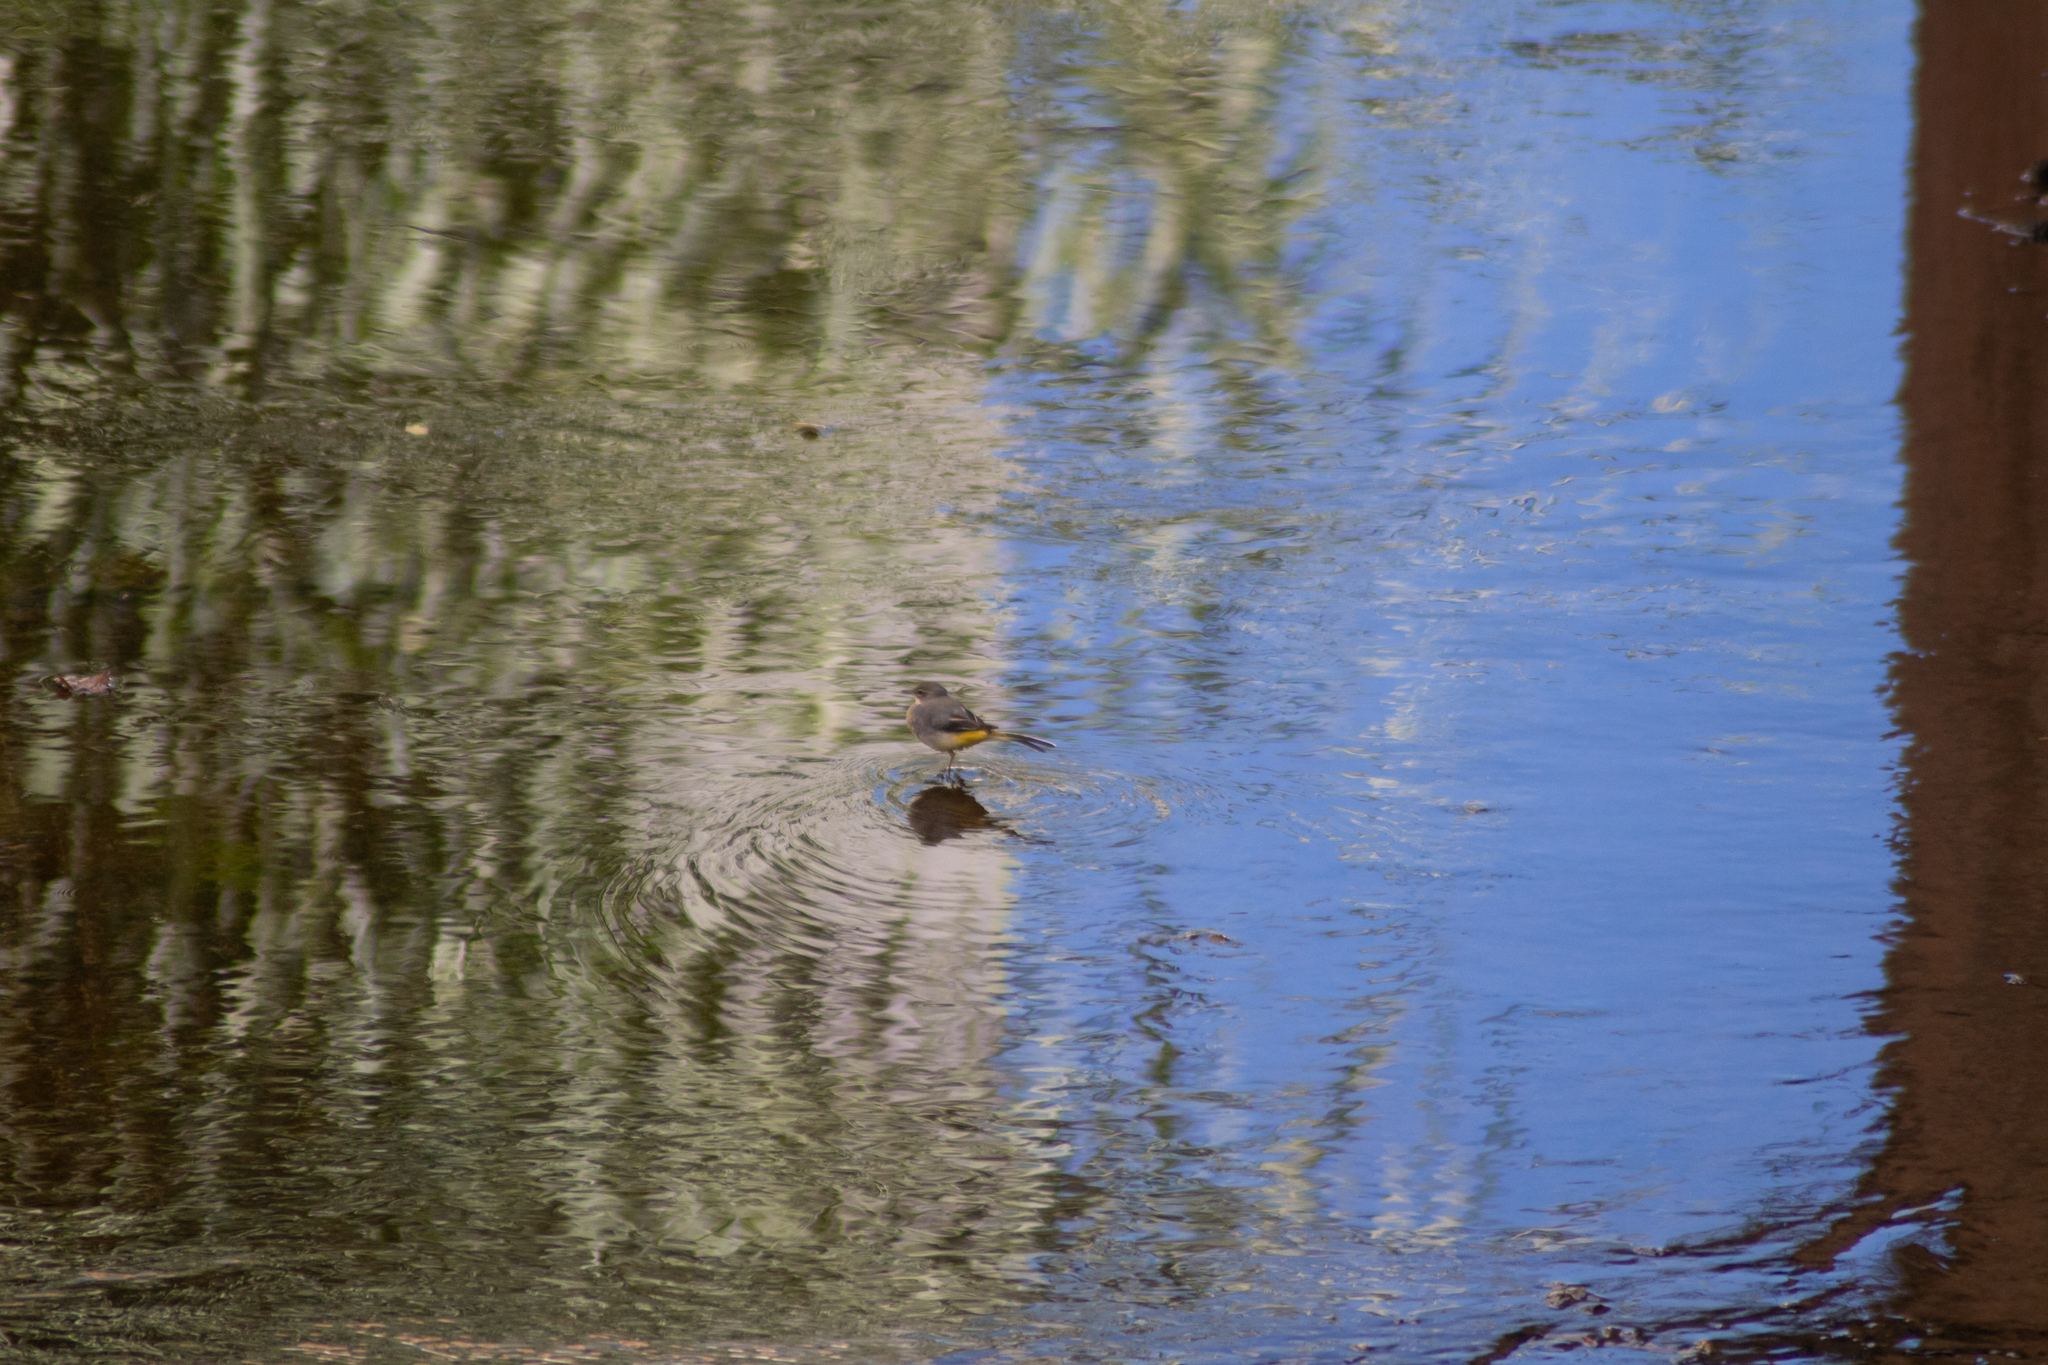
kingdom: Animalia
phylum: Chordata
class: Aves
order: Passeriformes
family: Motacillidae
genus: Motacilla
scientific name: Motacilla cinerea
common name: Grey wagtail
